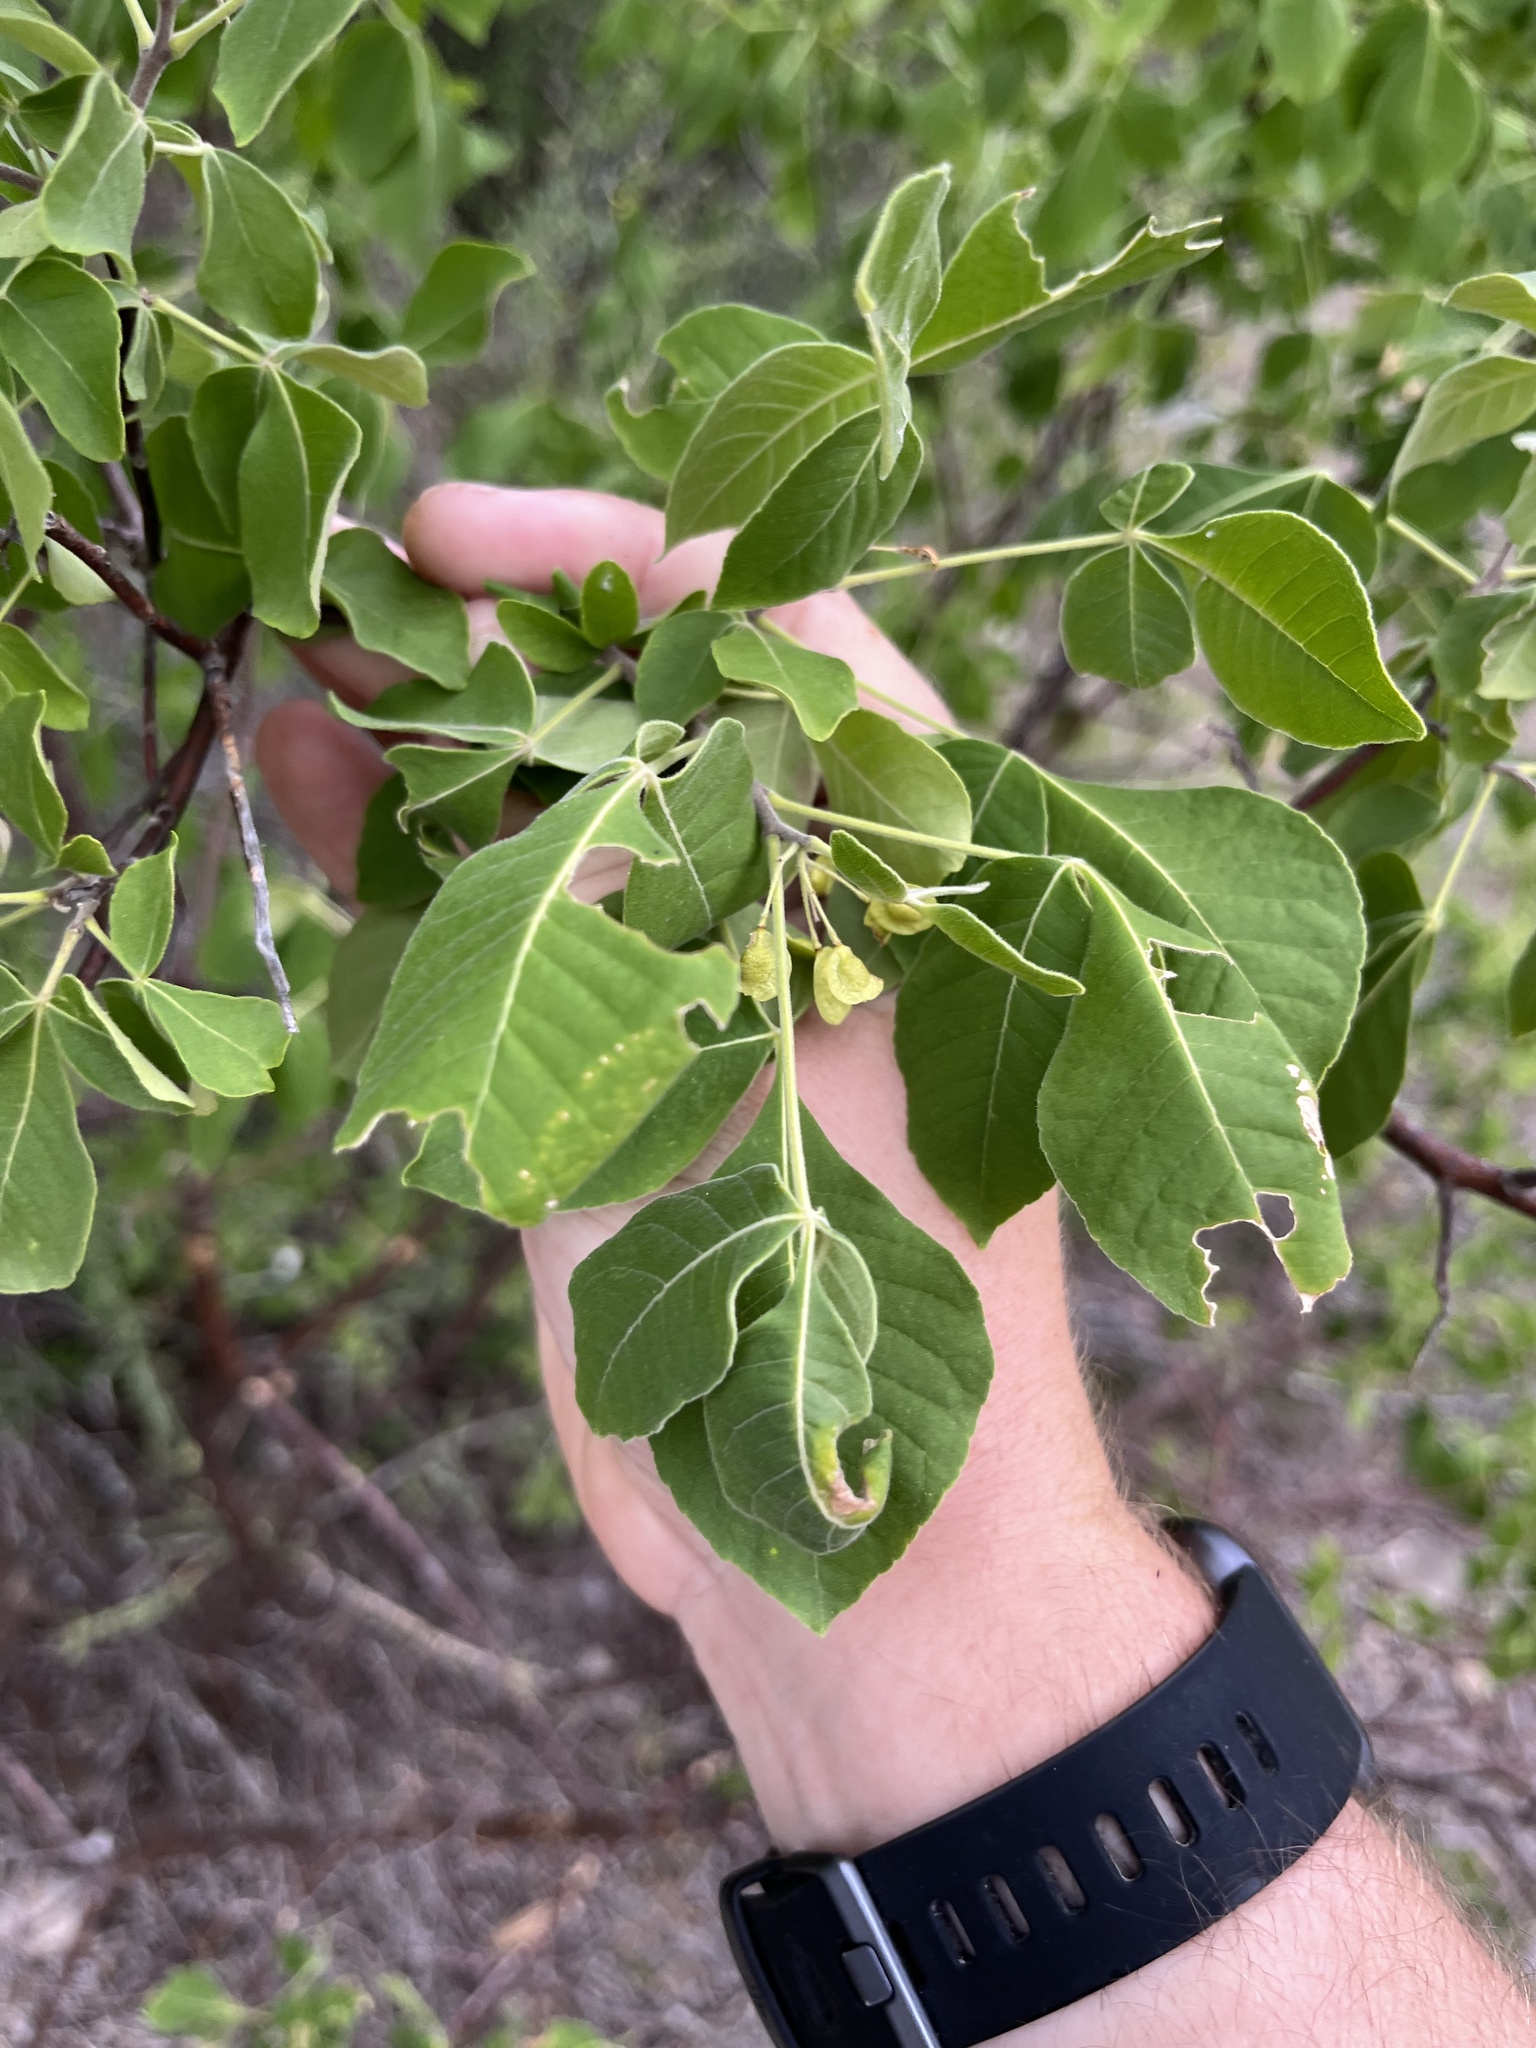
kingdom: Plantae
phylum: Tracheophyta
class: Magnoliopsida
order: Sapindales
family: Rutaceae
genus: Ptelea
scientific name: Ptelea trifoliata
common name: Common hop-tree
